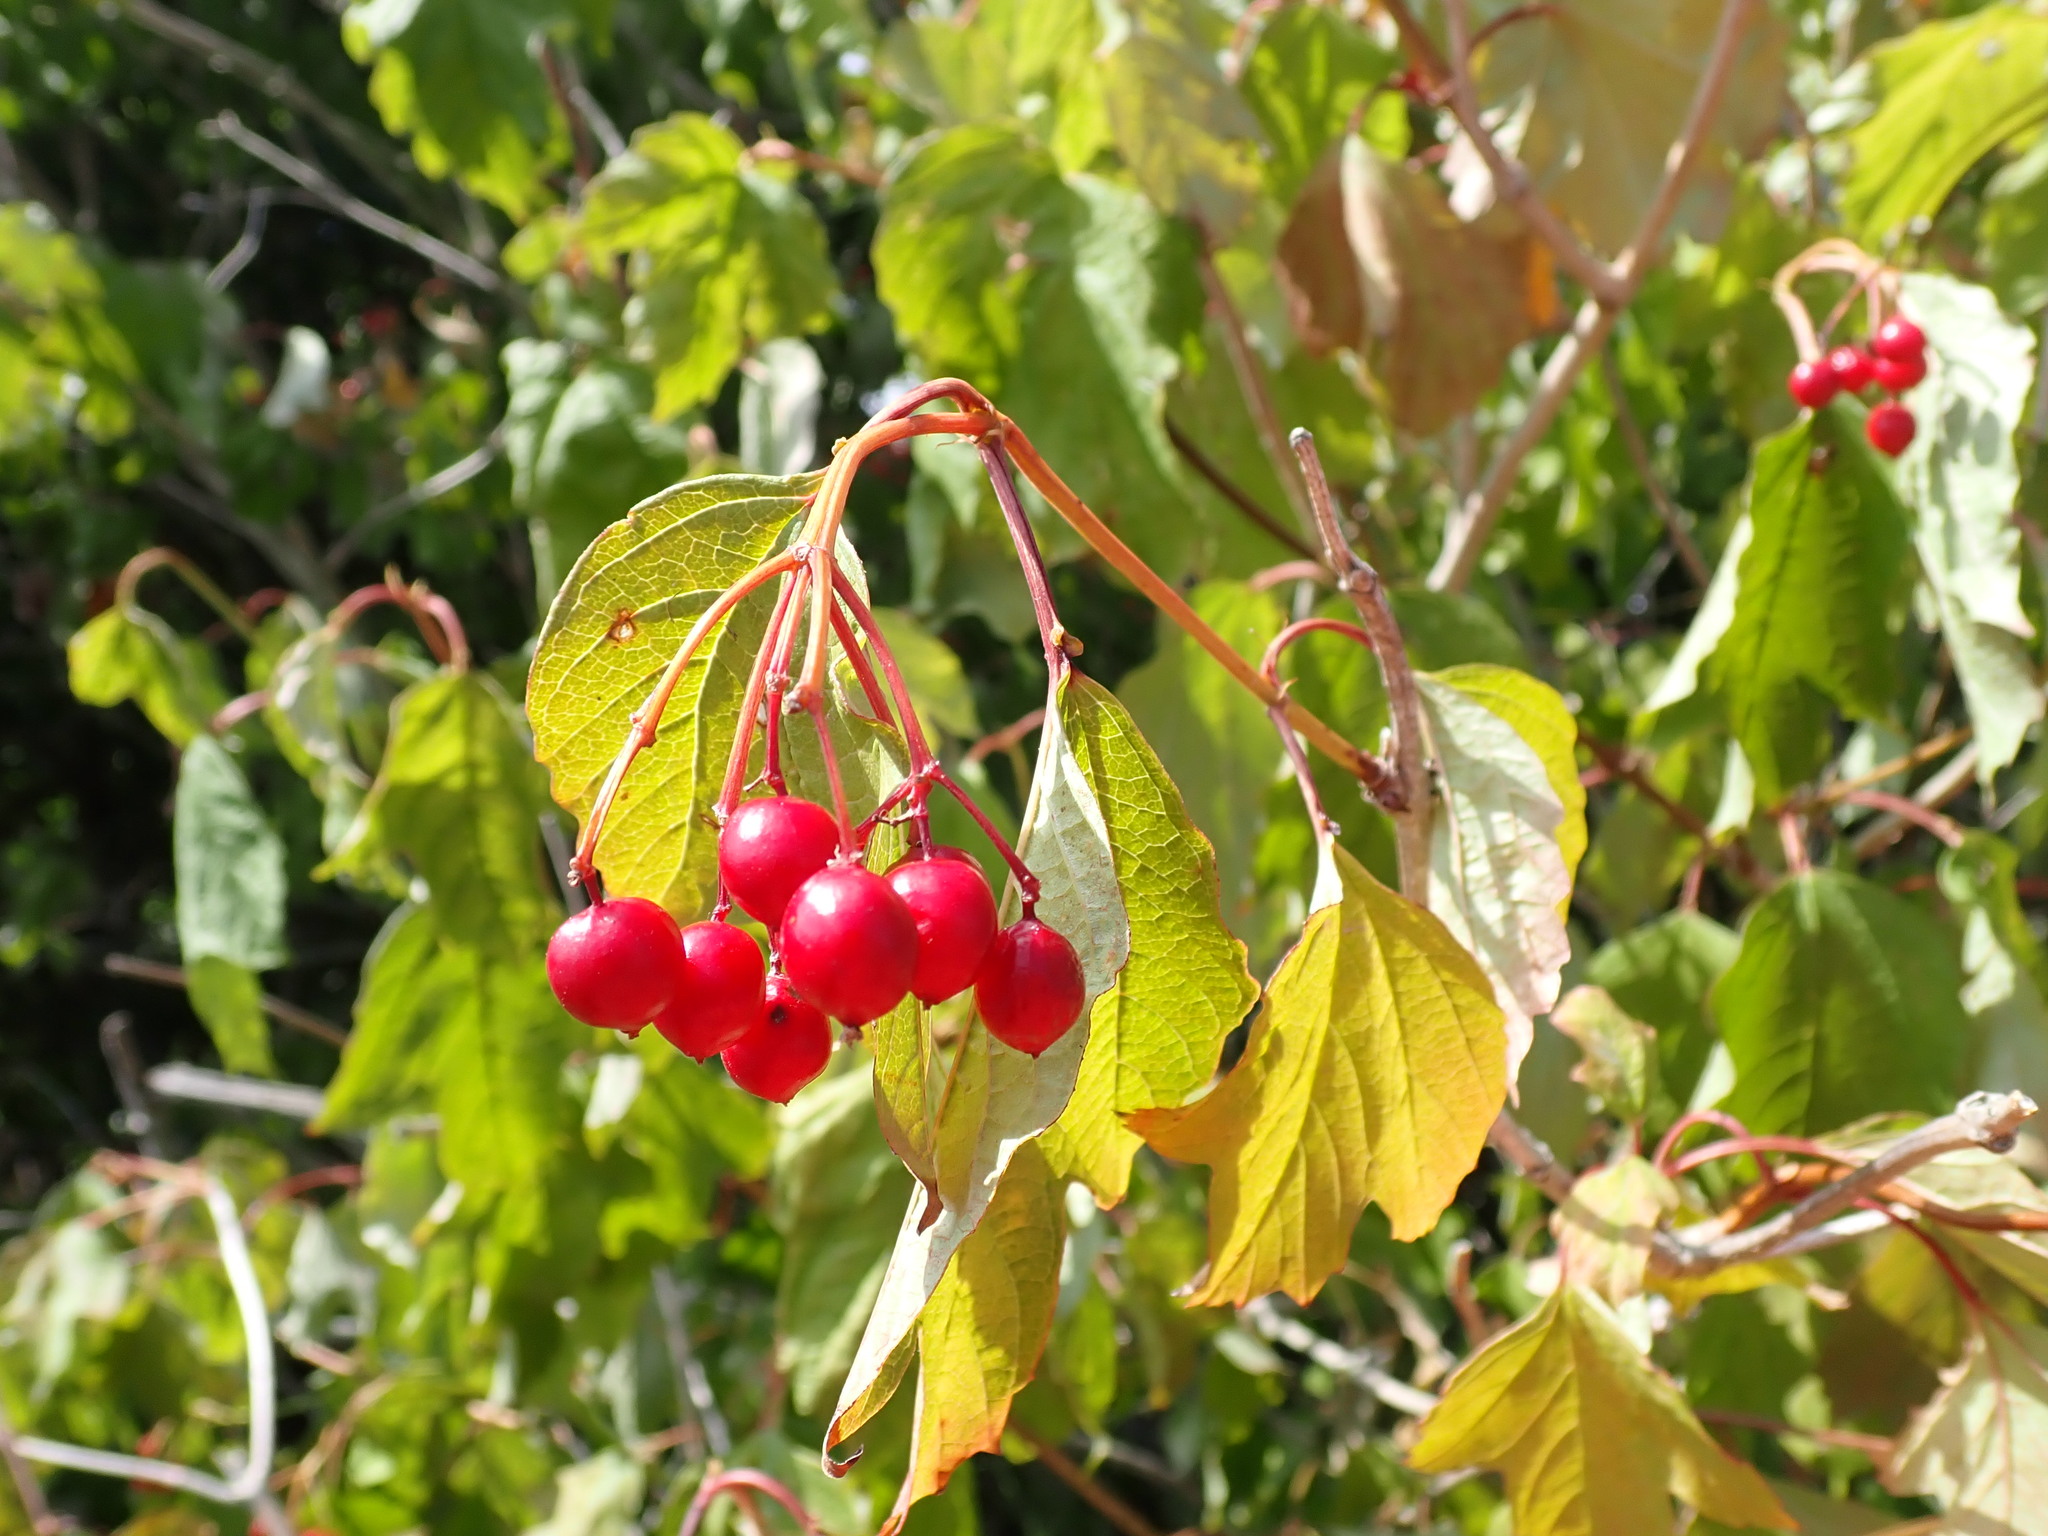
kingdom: Plantae
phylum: Tracheophyta
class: Magnoliopsida
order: Dipsacales
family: Viburnaceae
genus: Viburnum
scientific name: Viburnum opulus
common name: Guelder-rose
